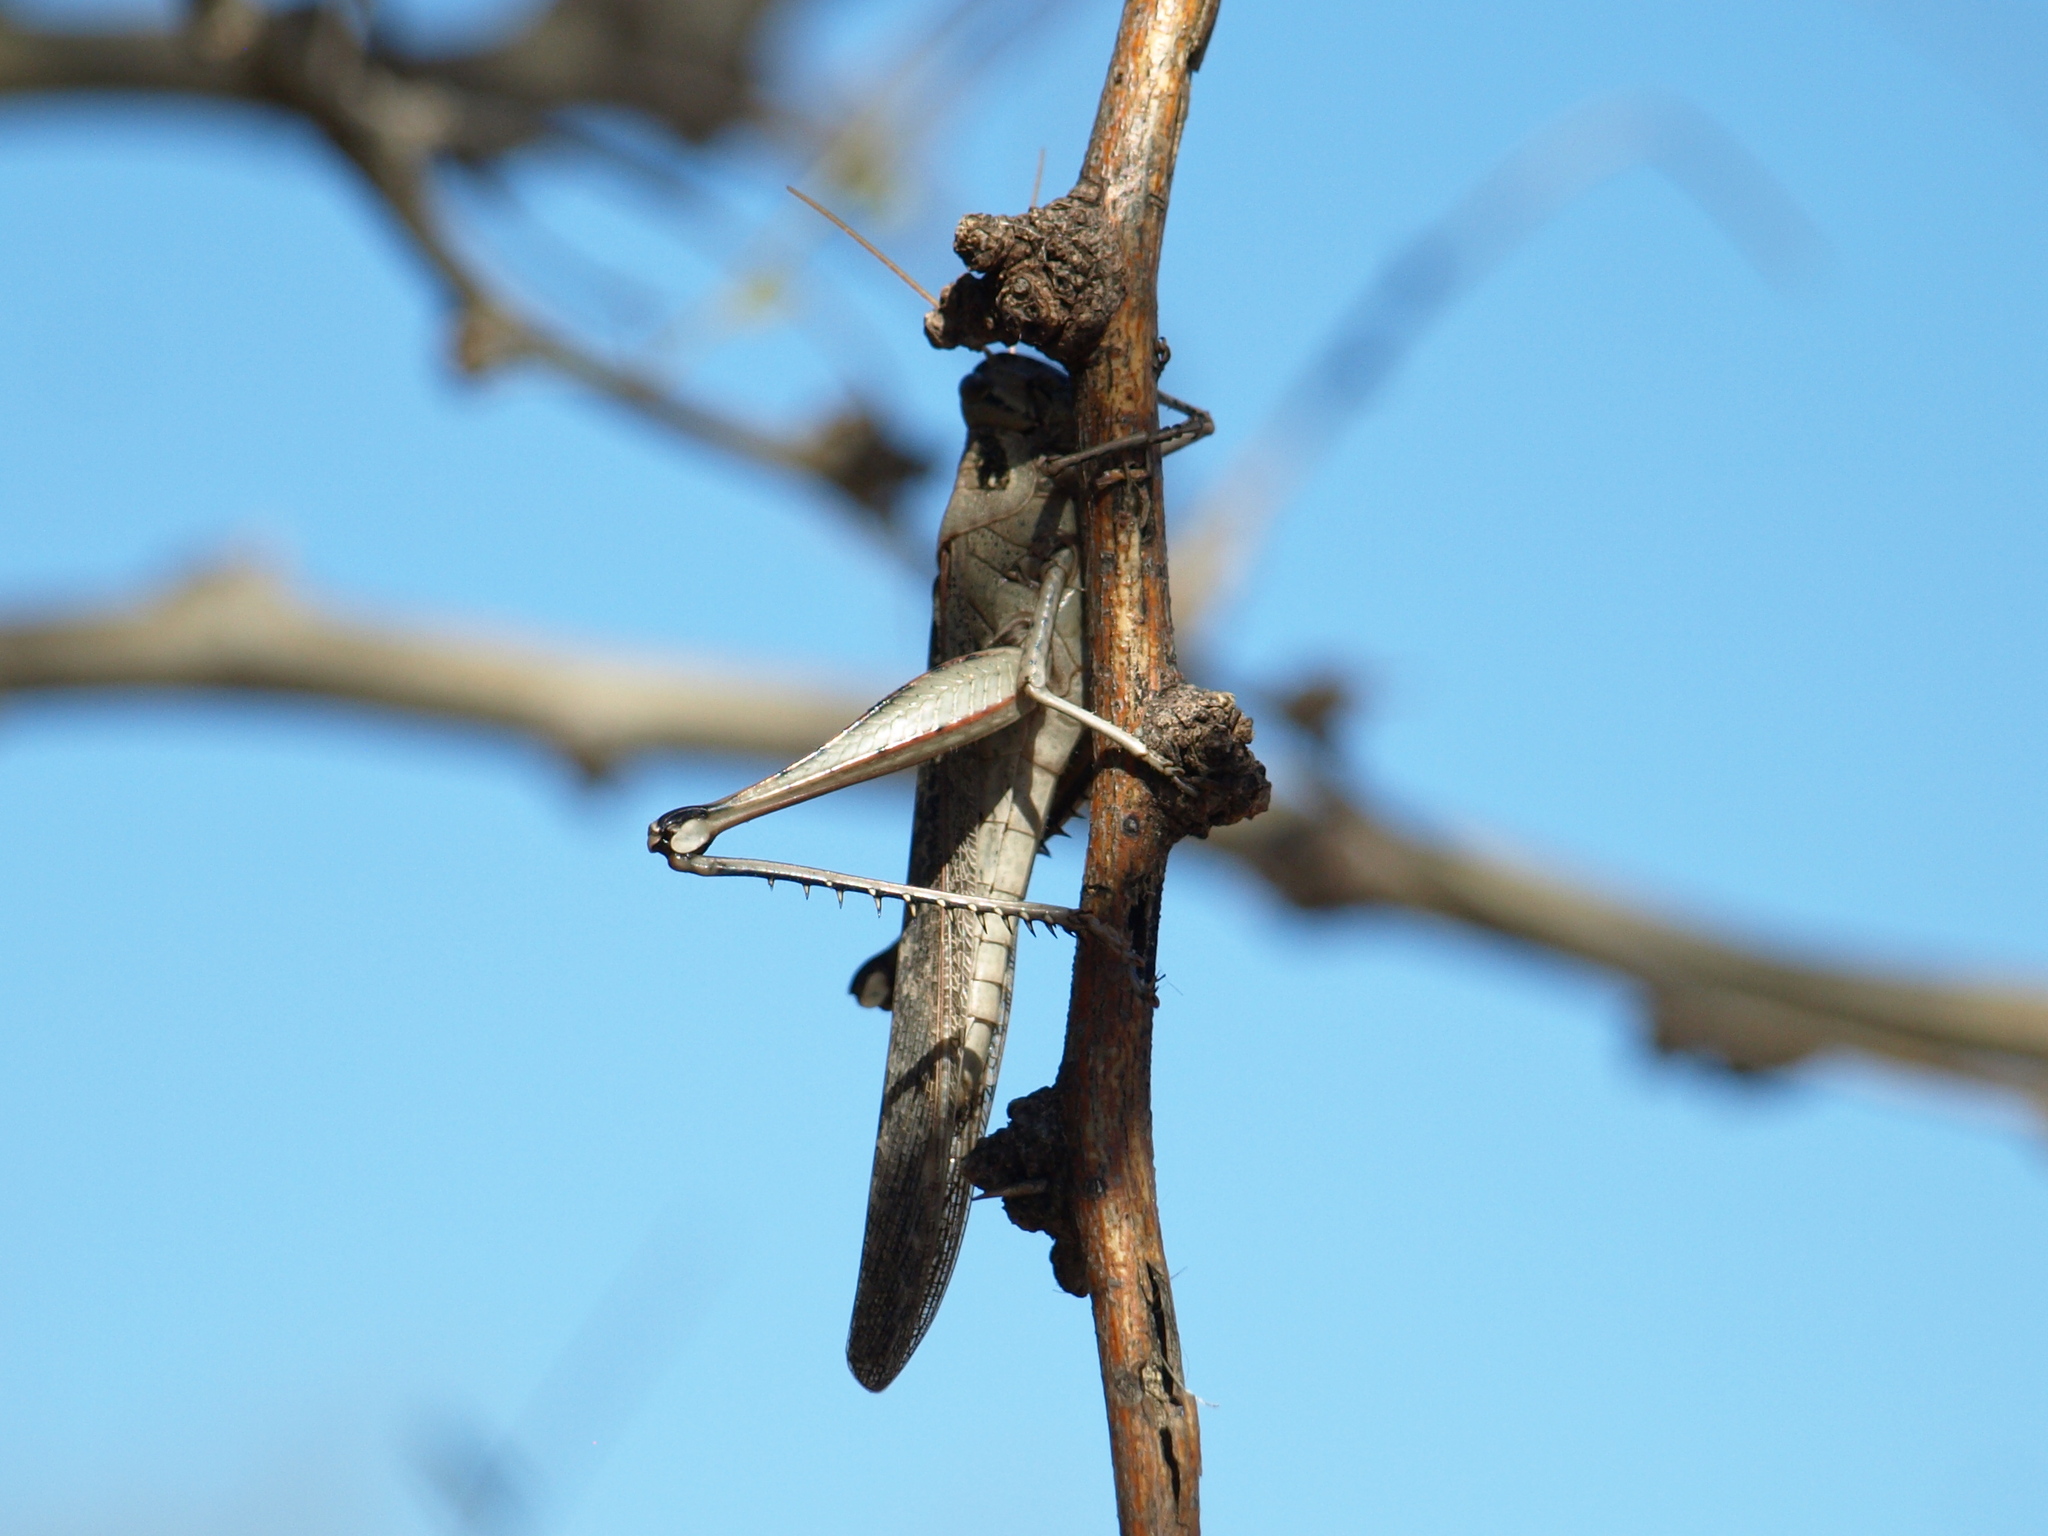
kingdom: Animalia
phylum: Arthropoda
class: Insecta
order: Orthoptera
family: Acrididae
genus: Schistocerca
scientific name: Schistocerca nitens
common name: Vagrant grasshopper
